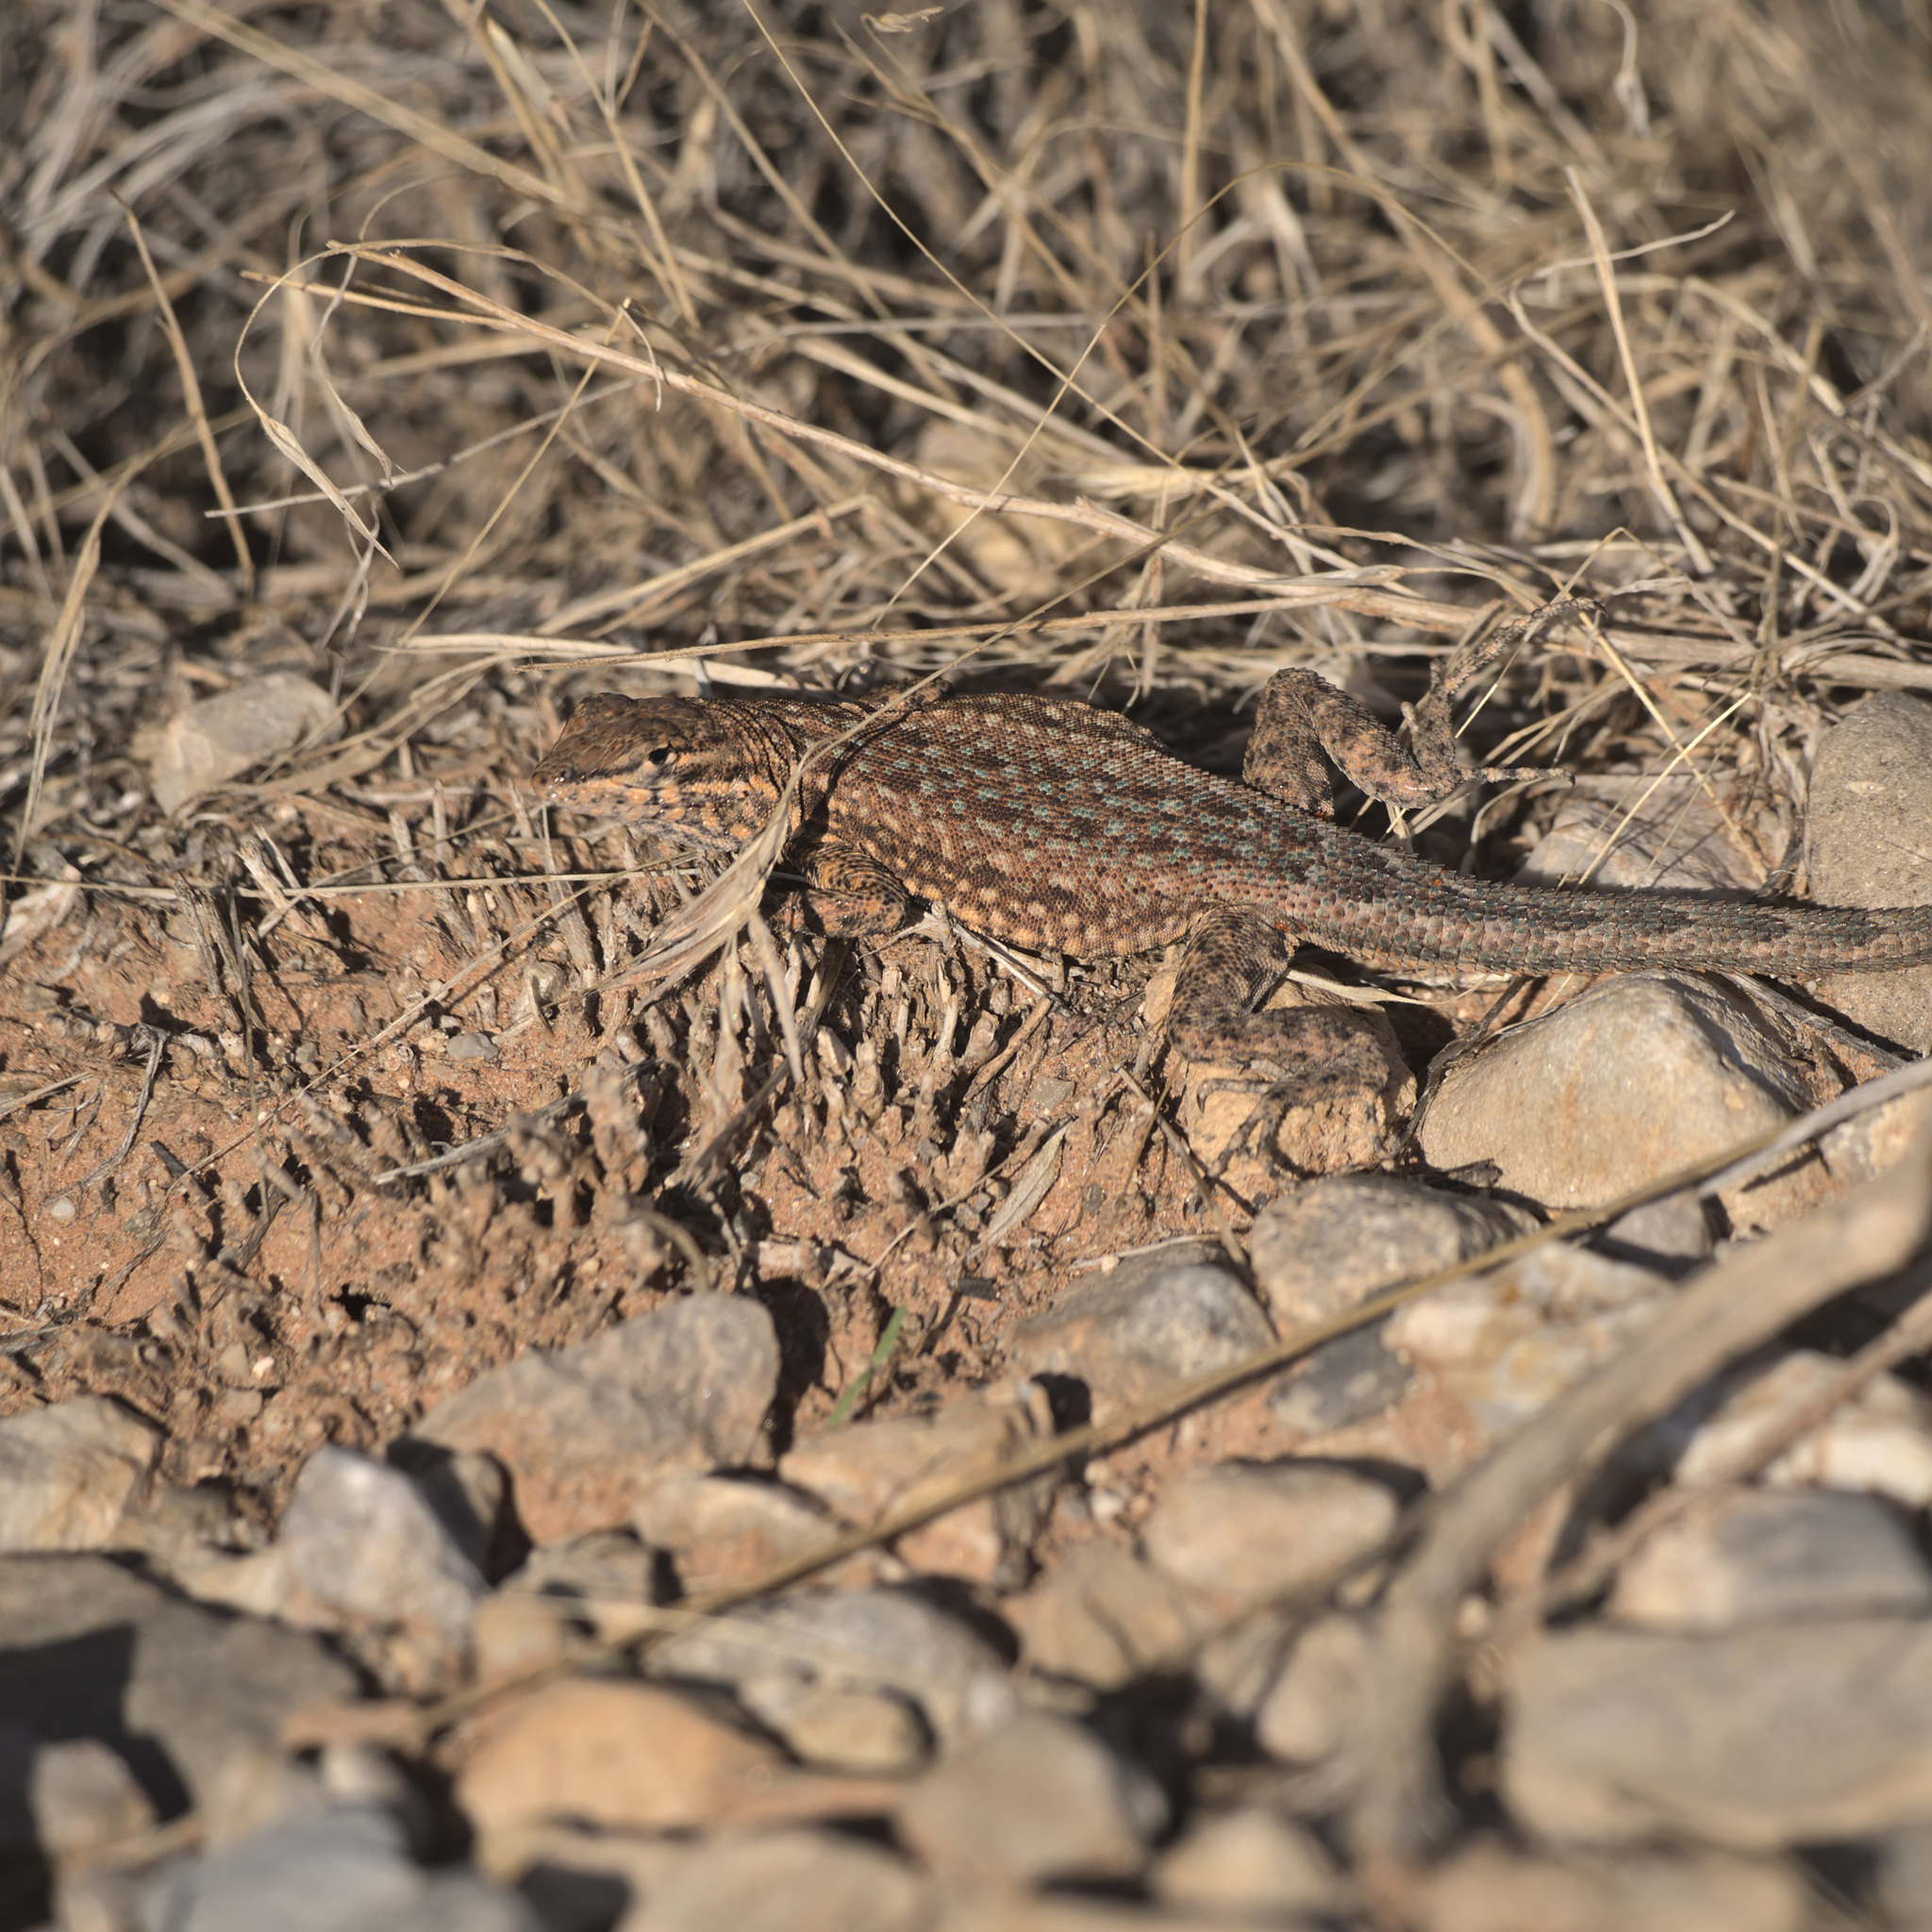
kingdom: Animalia
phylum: Chordata
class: Squamata
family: Phrynosomatidae
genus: Uta
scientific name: Uta stansburiana
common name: Side-blotched lizard
